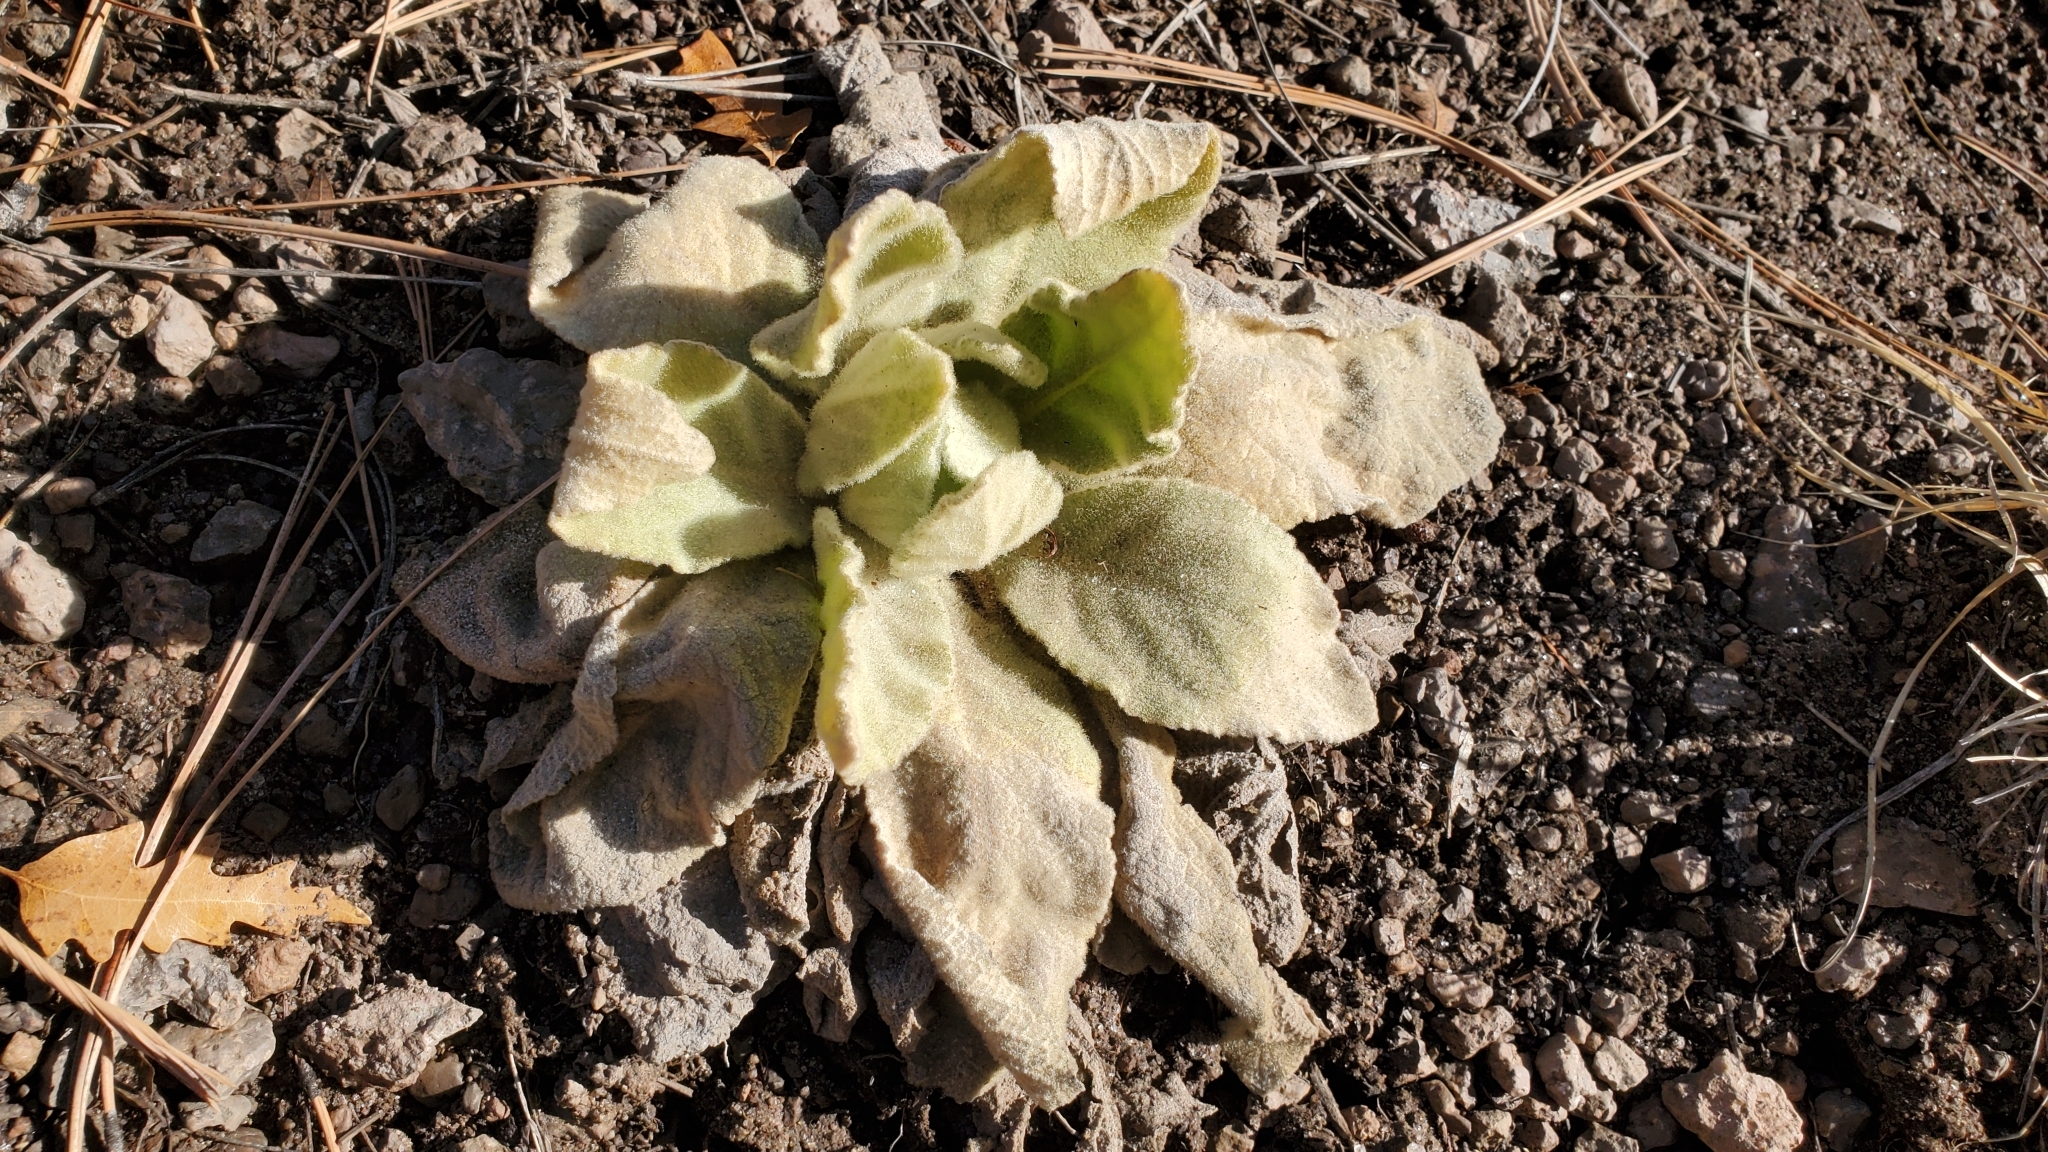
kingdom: Plantae
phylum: Tracheophyta
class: Magnoliopsida
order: Lamiales
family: Scrophulariaceae
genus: Verbascum
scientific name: Verbascum thapsus
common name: Common mullein
